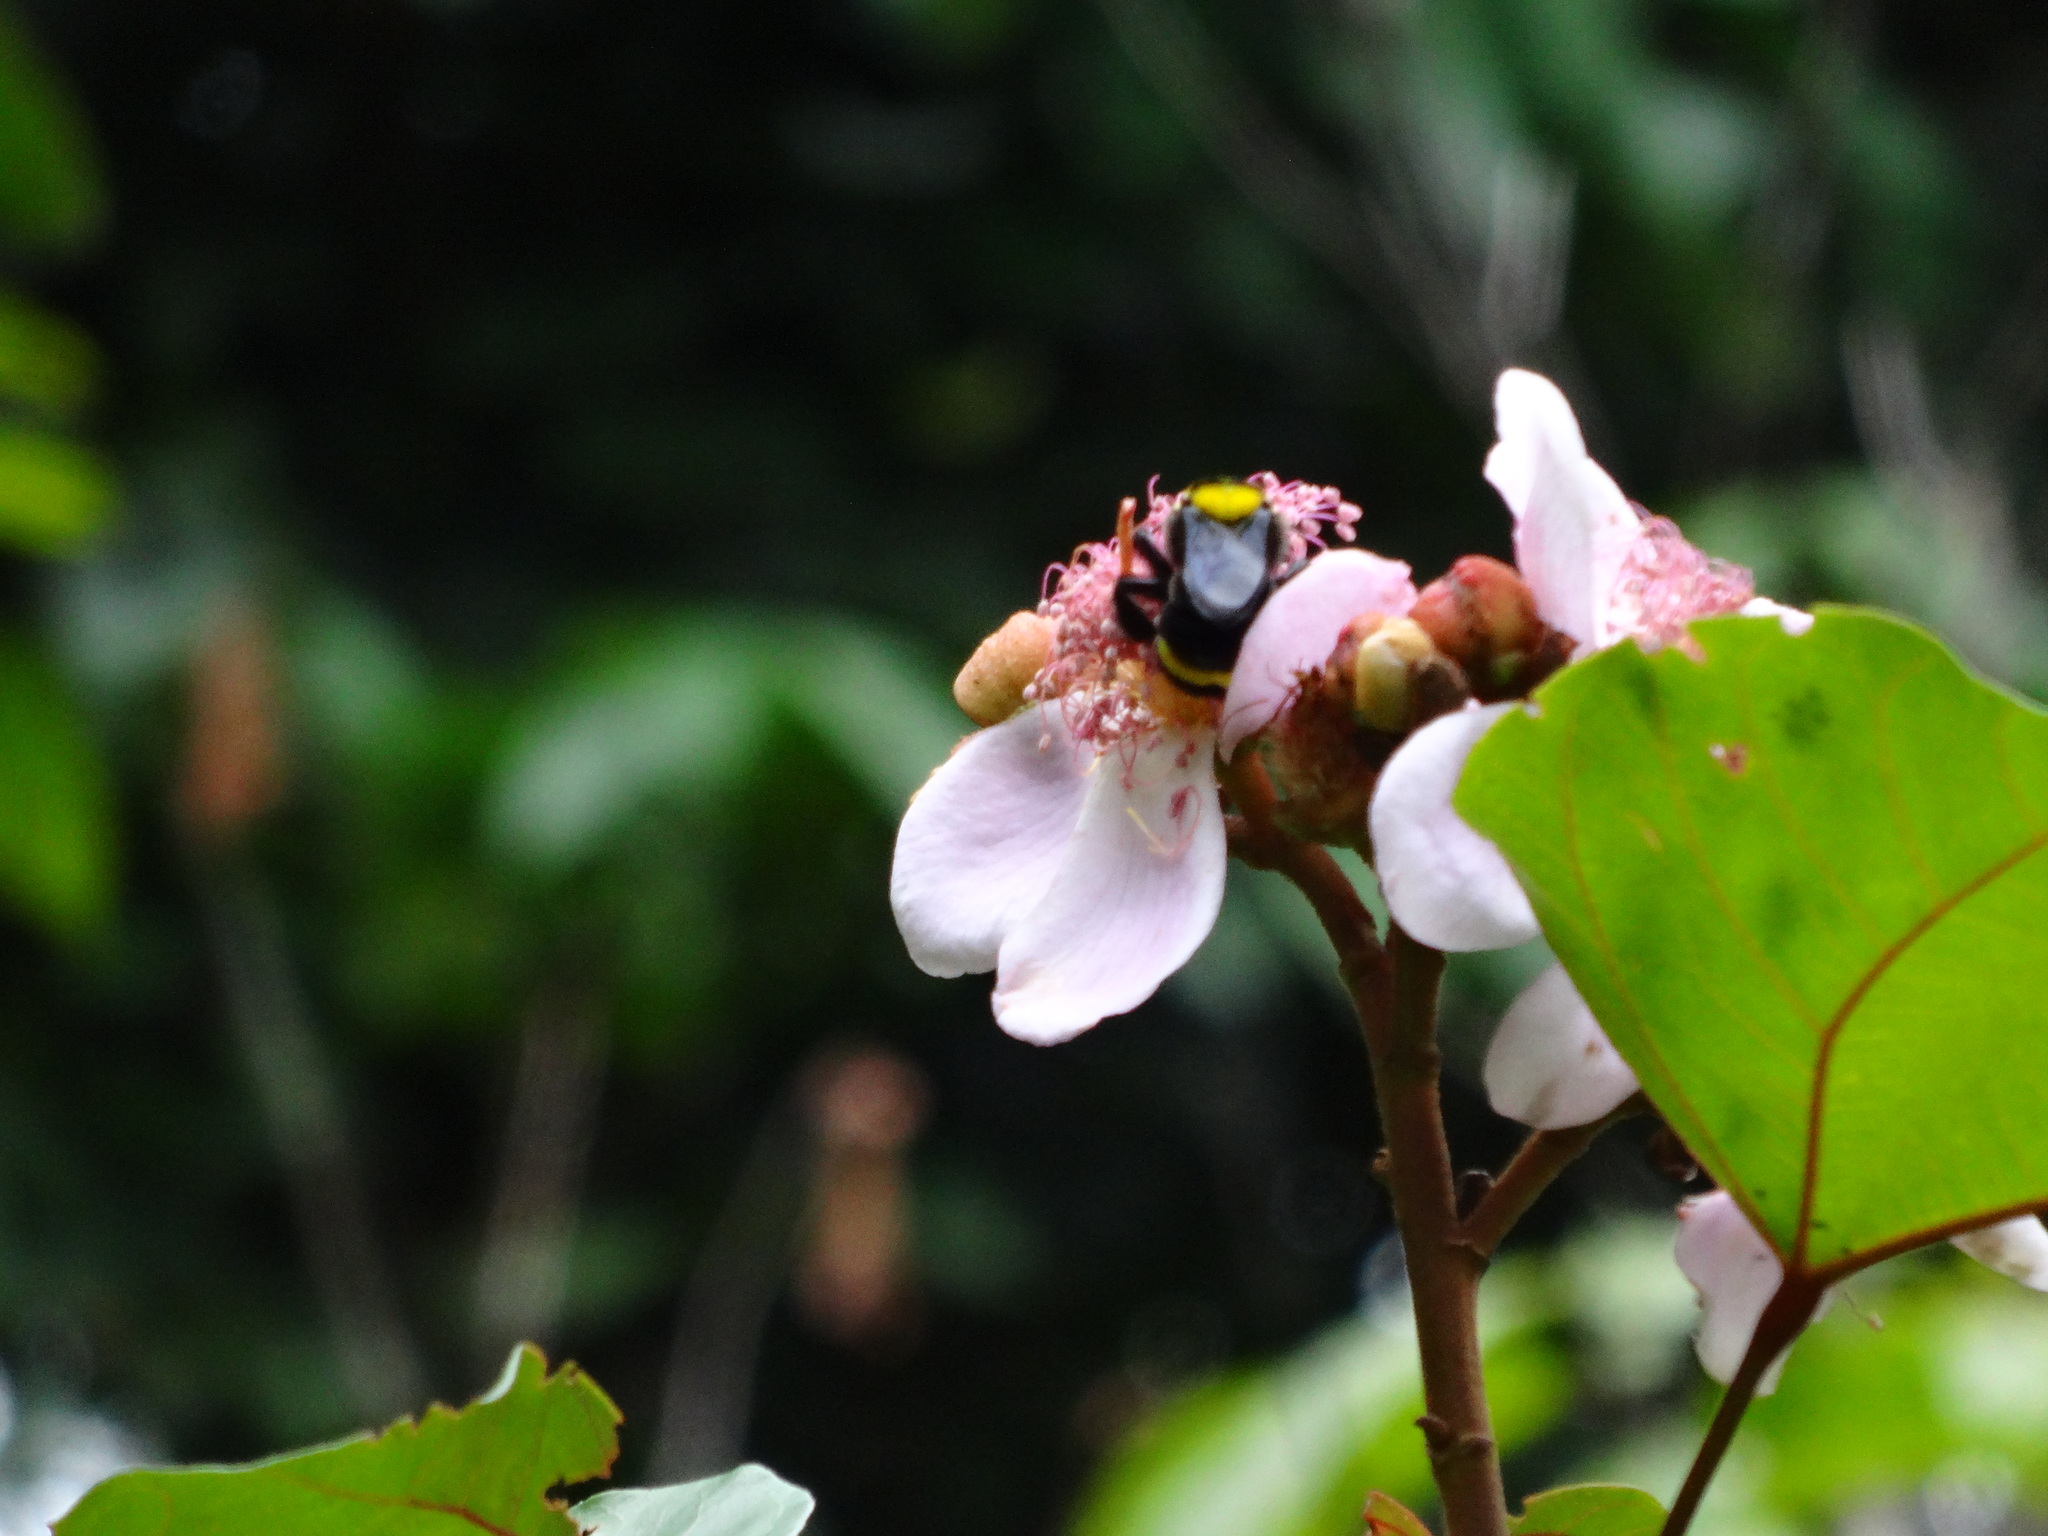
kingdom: Animalia
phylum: Arthropoda
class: Insecta
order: Hymenoptera
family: Apidae
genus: Bombus
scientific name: Bombus transversalis
